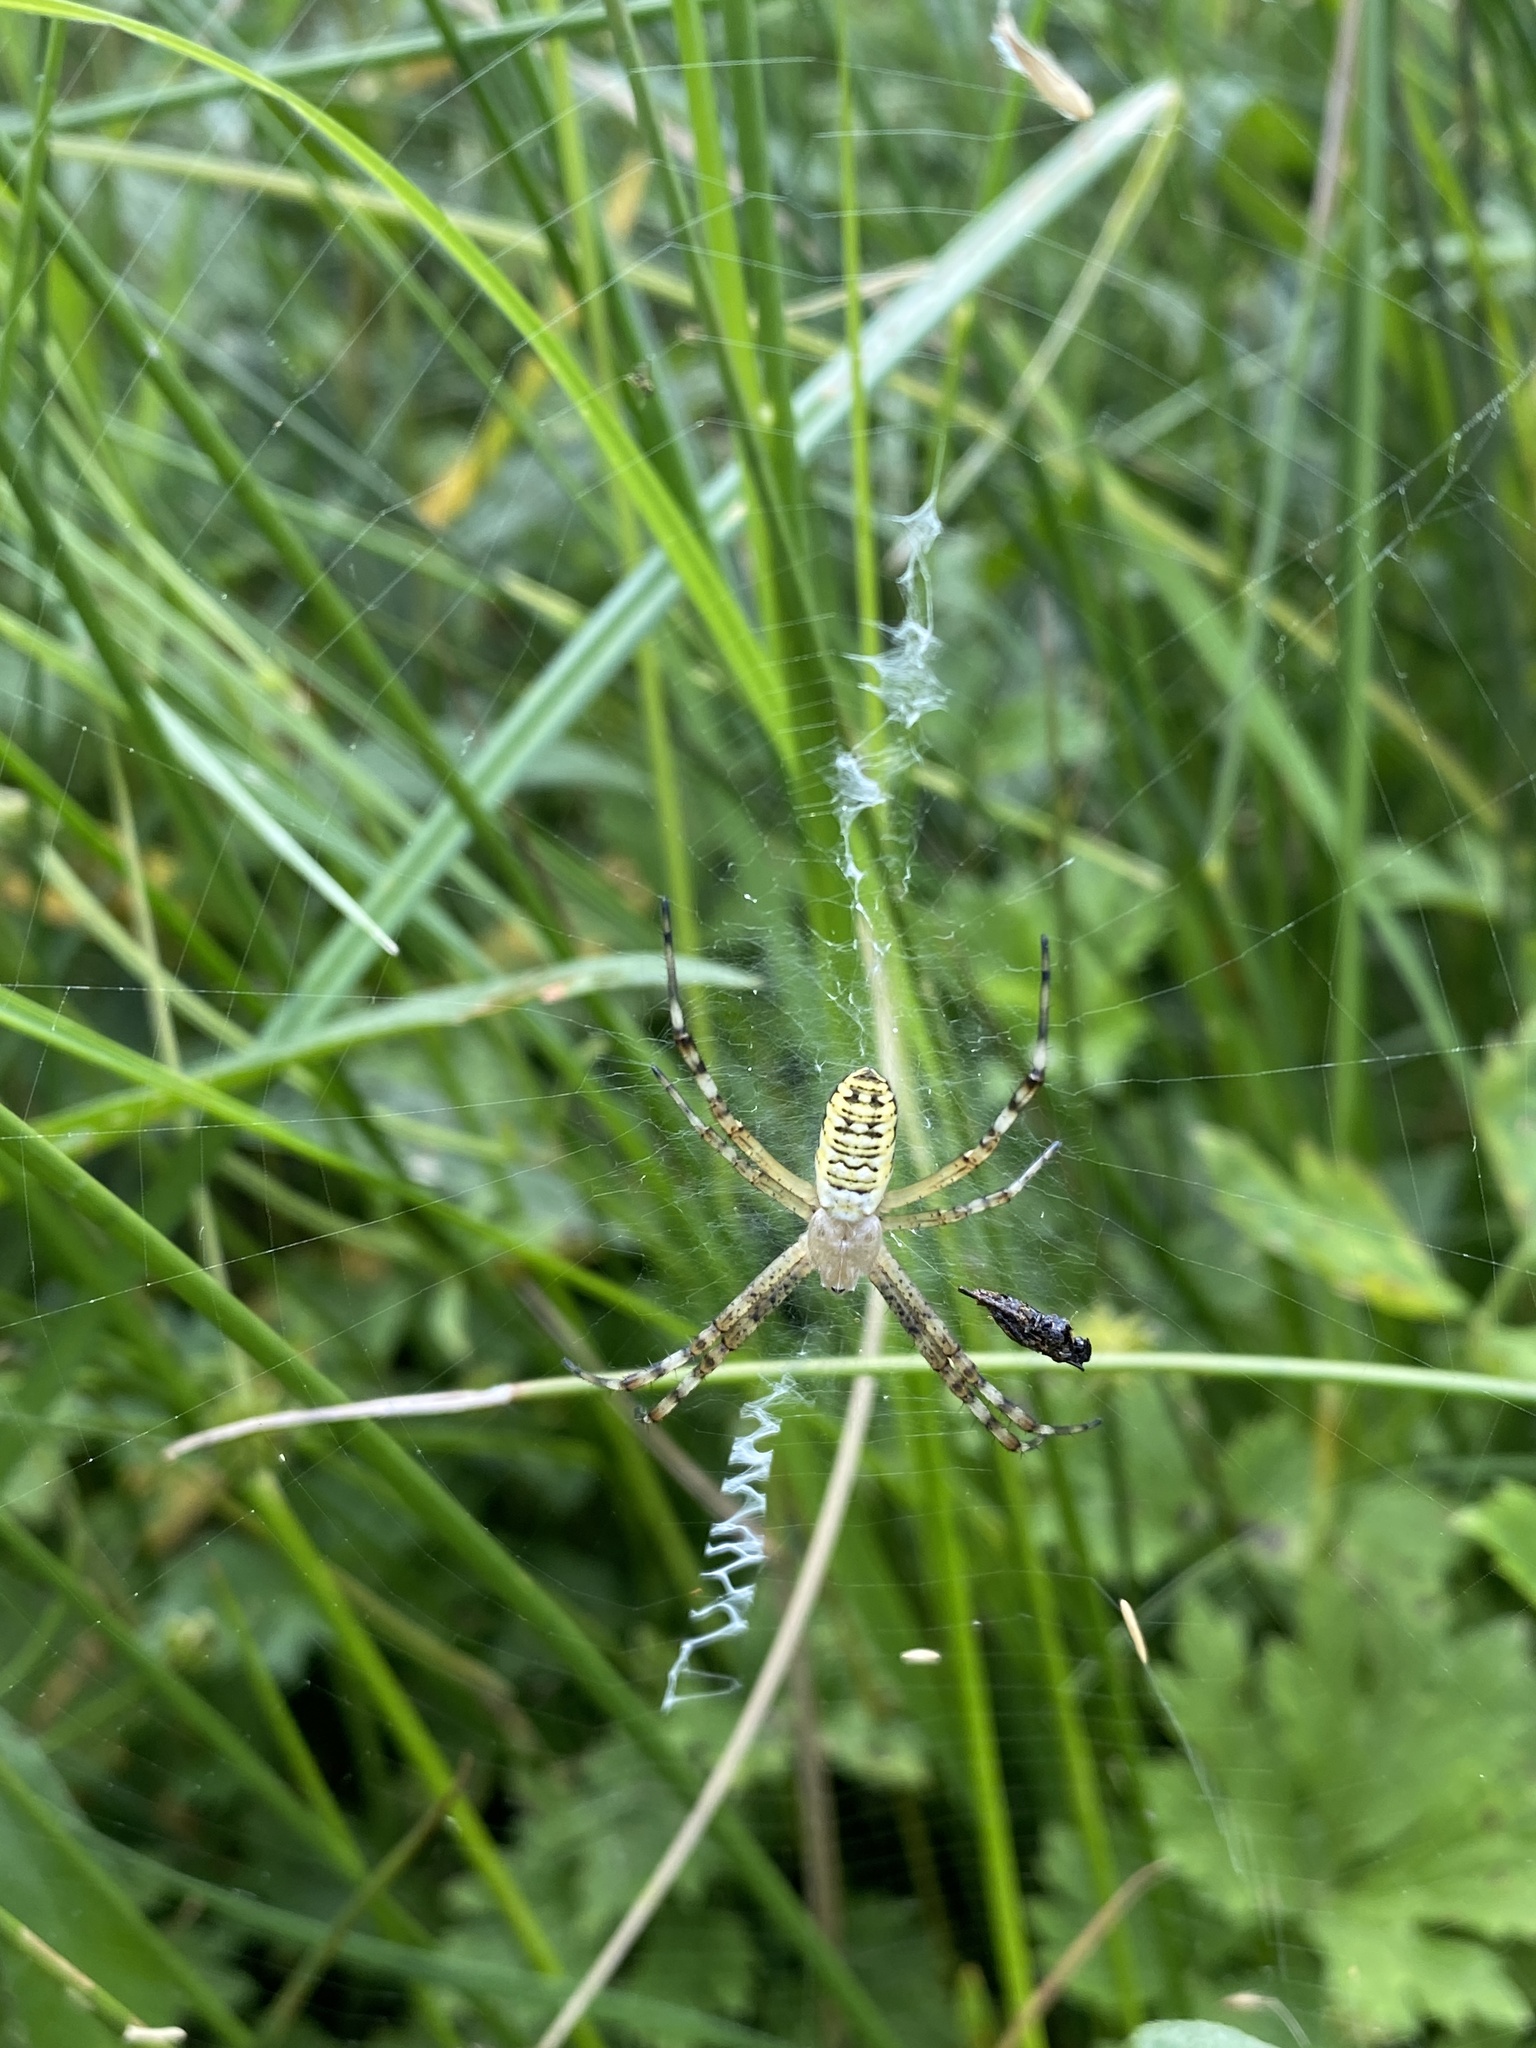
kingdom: Animalia
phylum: Arthropoda
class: Arachnida
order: Araneae
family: Araneidae
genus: Argiope
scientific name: Argiope bruennichi
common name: Wasp spider
